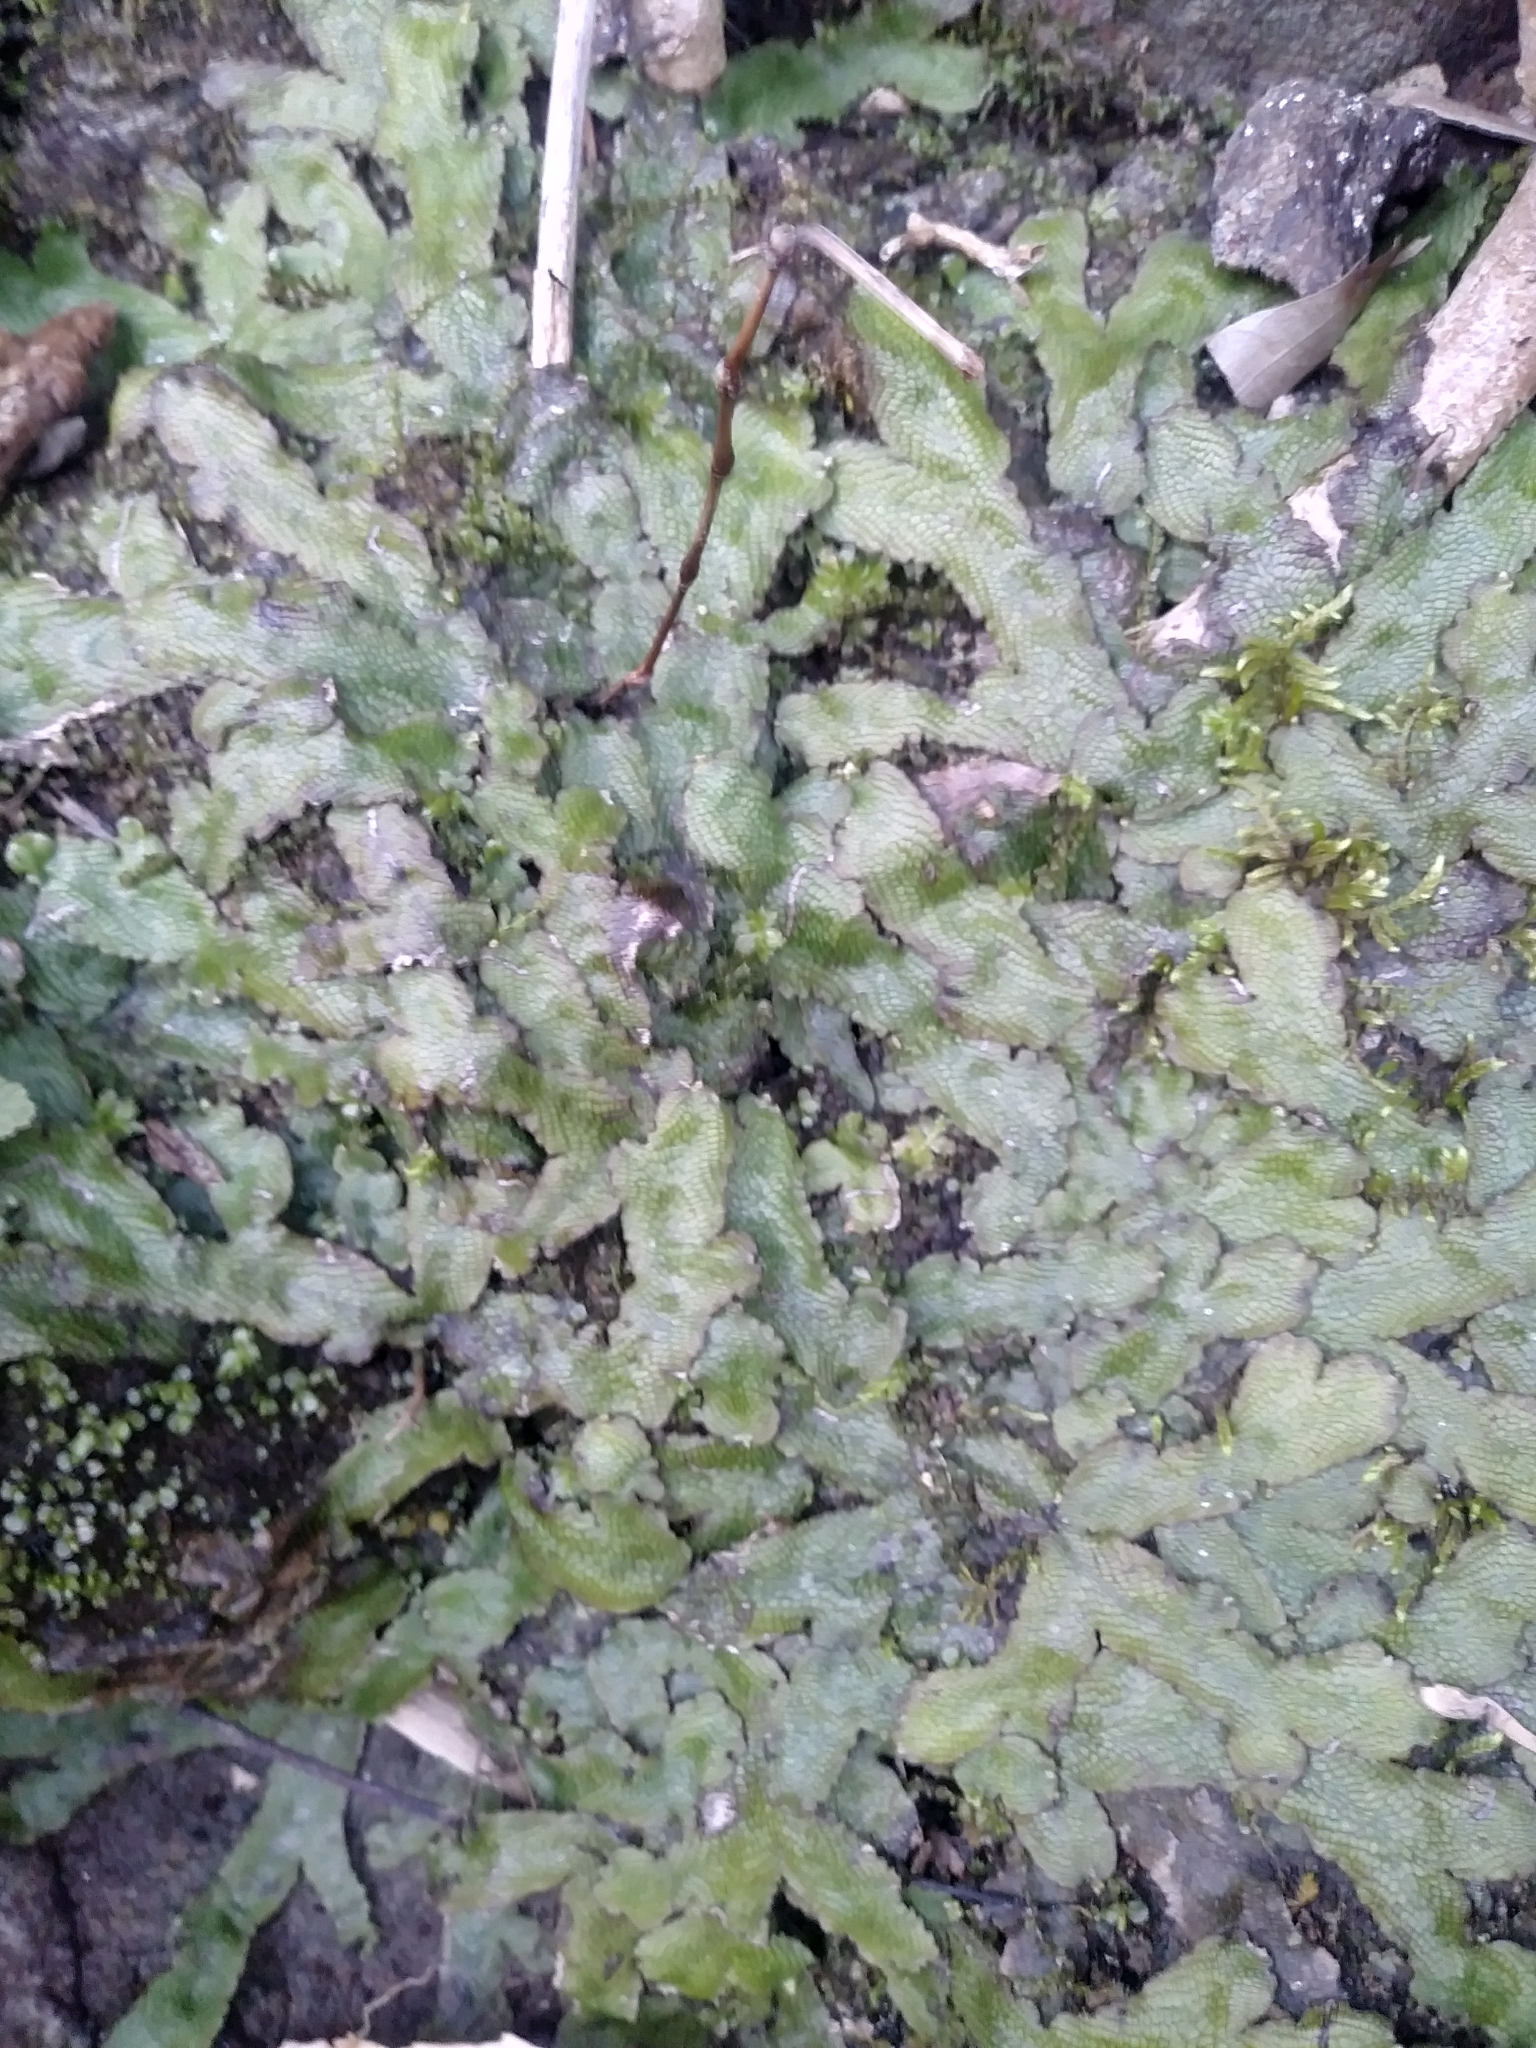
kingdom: Plantae
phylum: Marchantiophyta
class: Marchantiopsida
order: Marchantiales
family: Conocephalaceae
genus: Conocephalum
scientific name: Conocephalum salebrosum
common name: Cat-tongue liverwort
